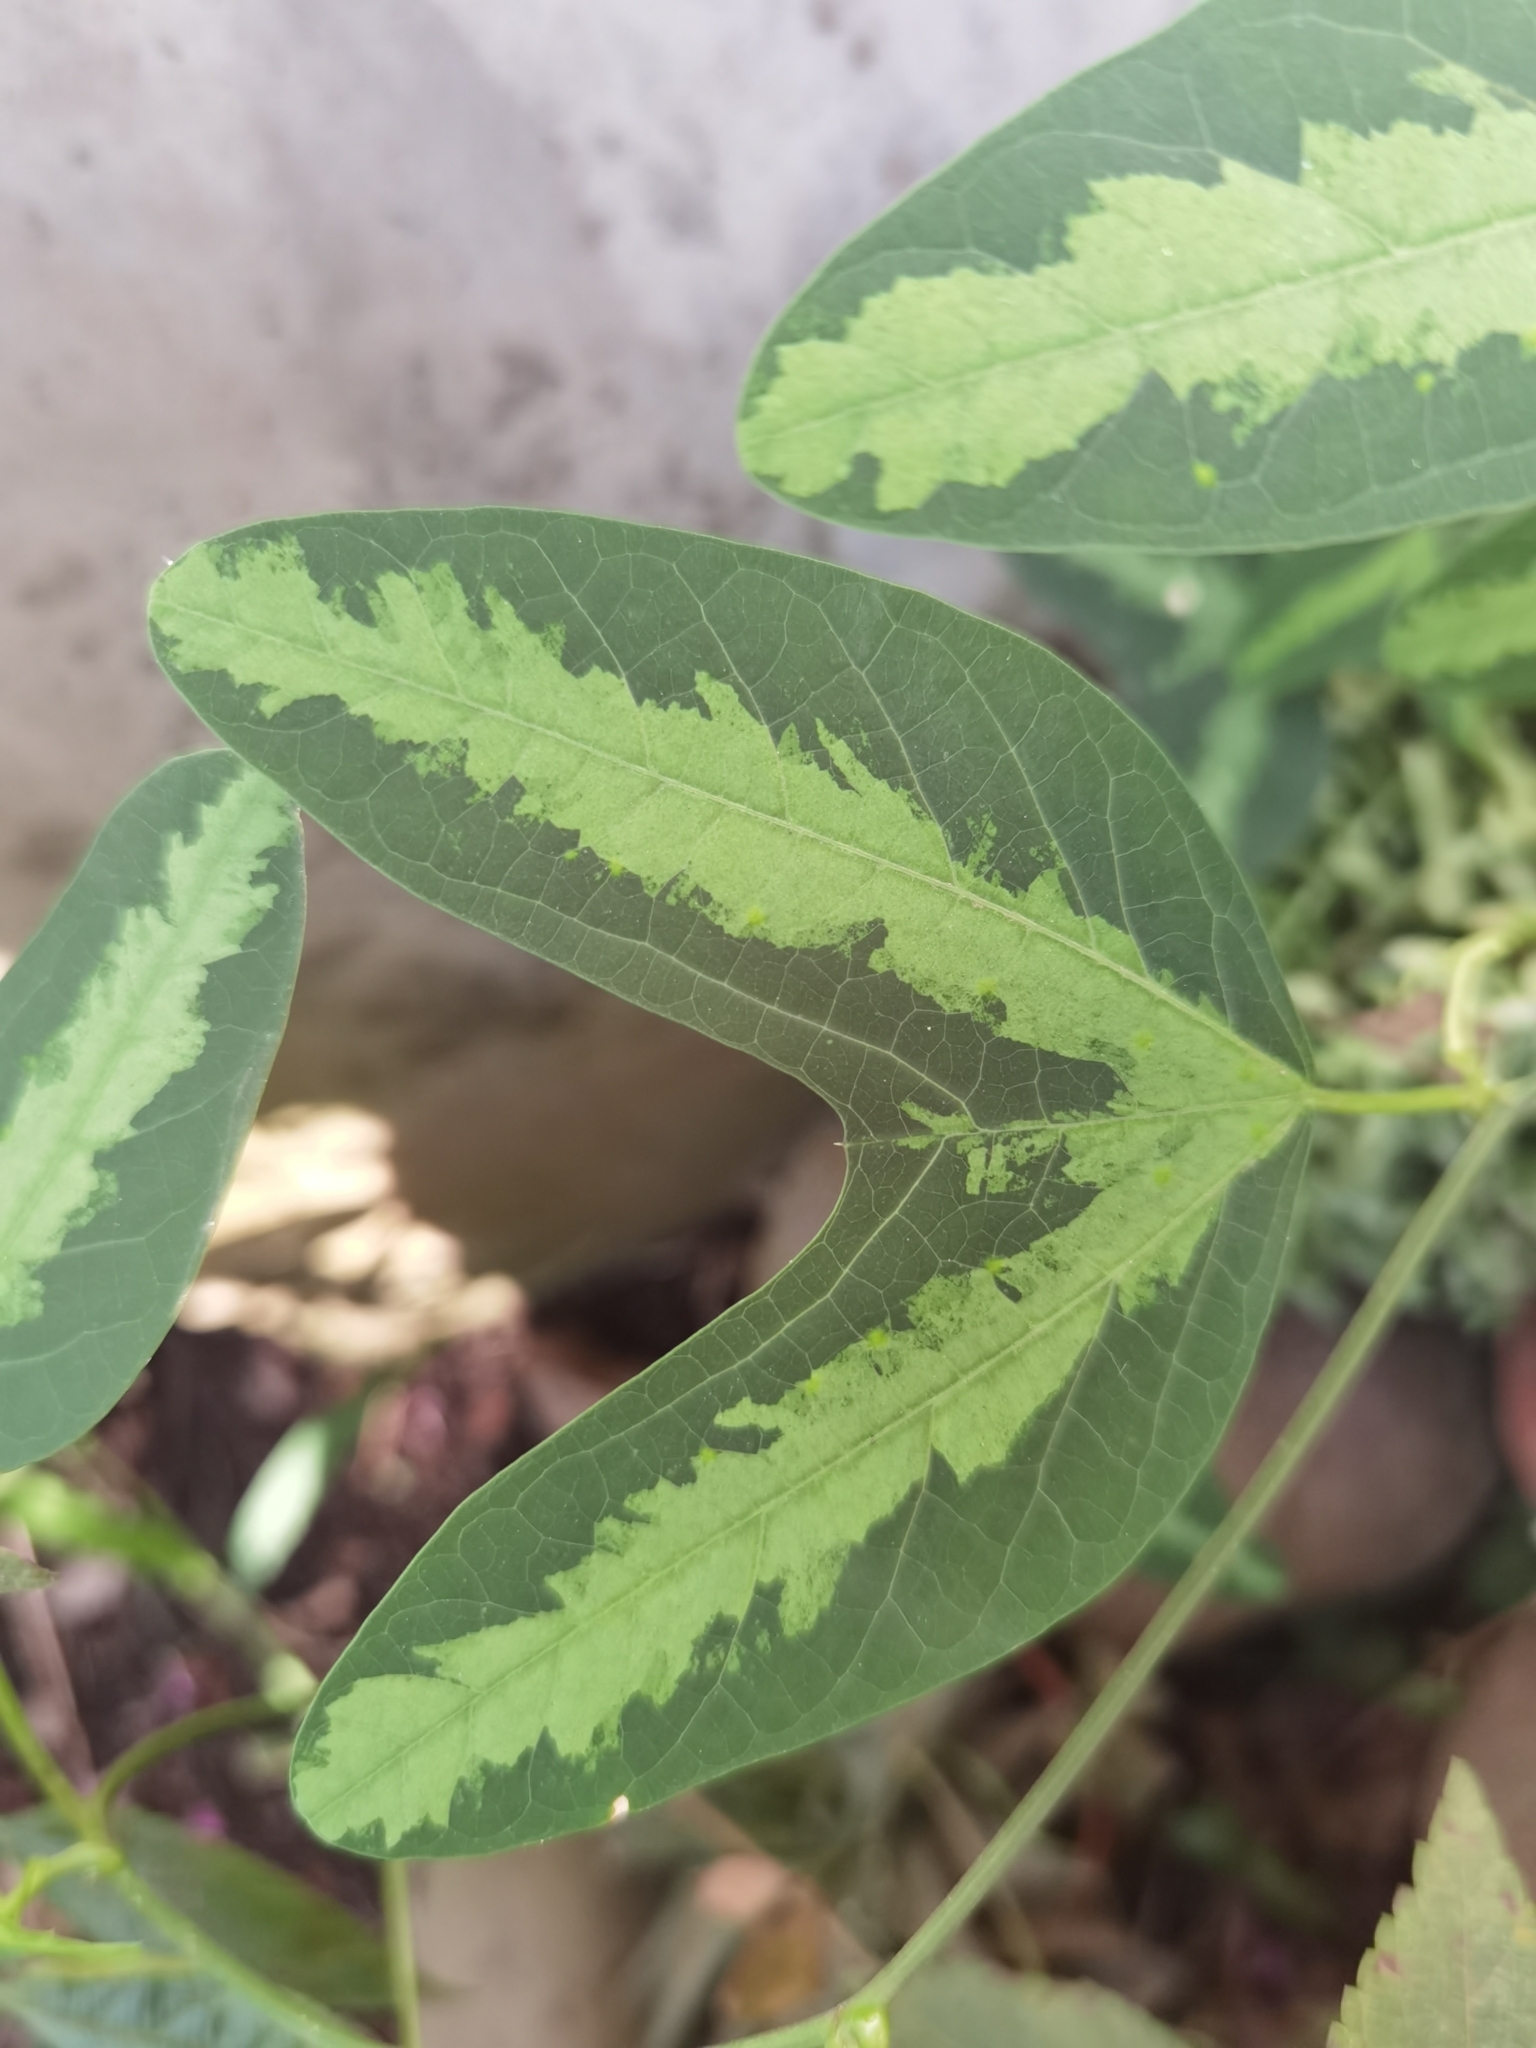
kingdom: Plantae
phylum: Tracheophyta
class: Magnoliopsida
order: Malpighiales
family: Passifloraceae
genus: Passiflora
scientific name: Passiflora apetala
